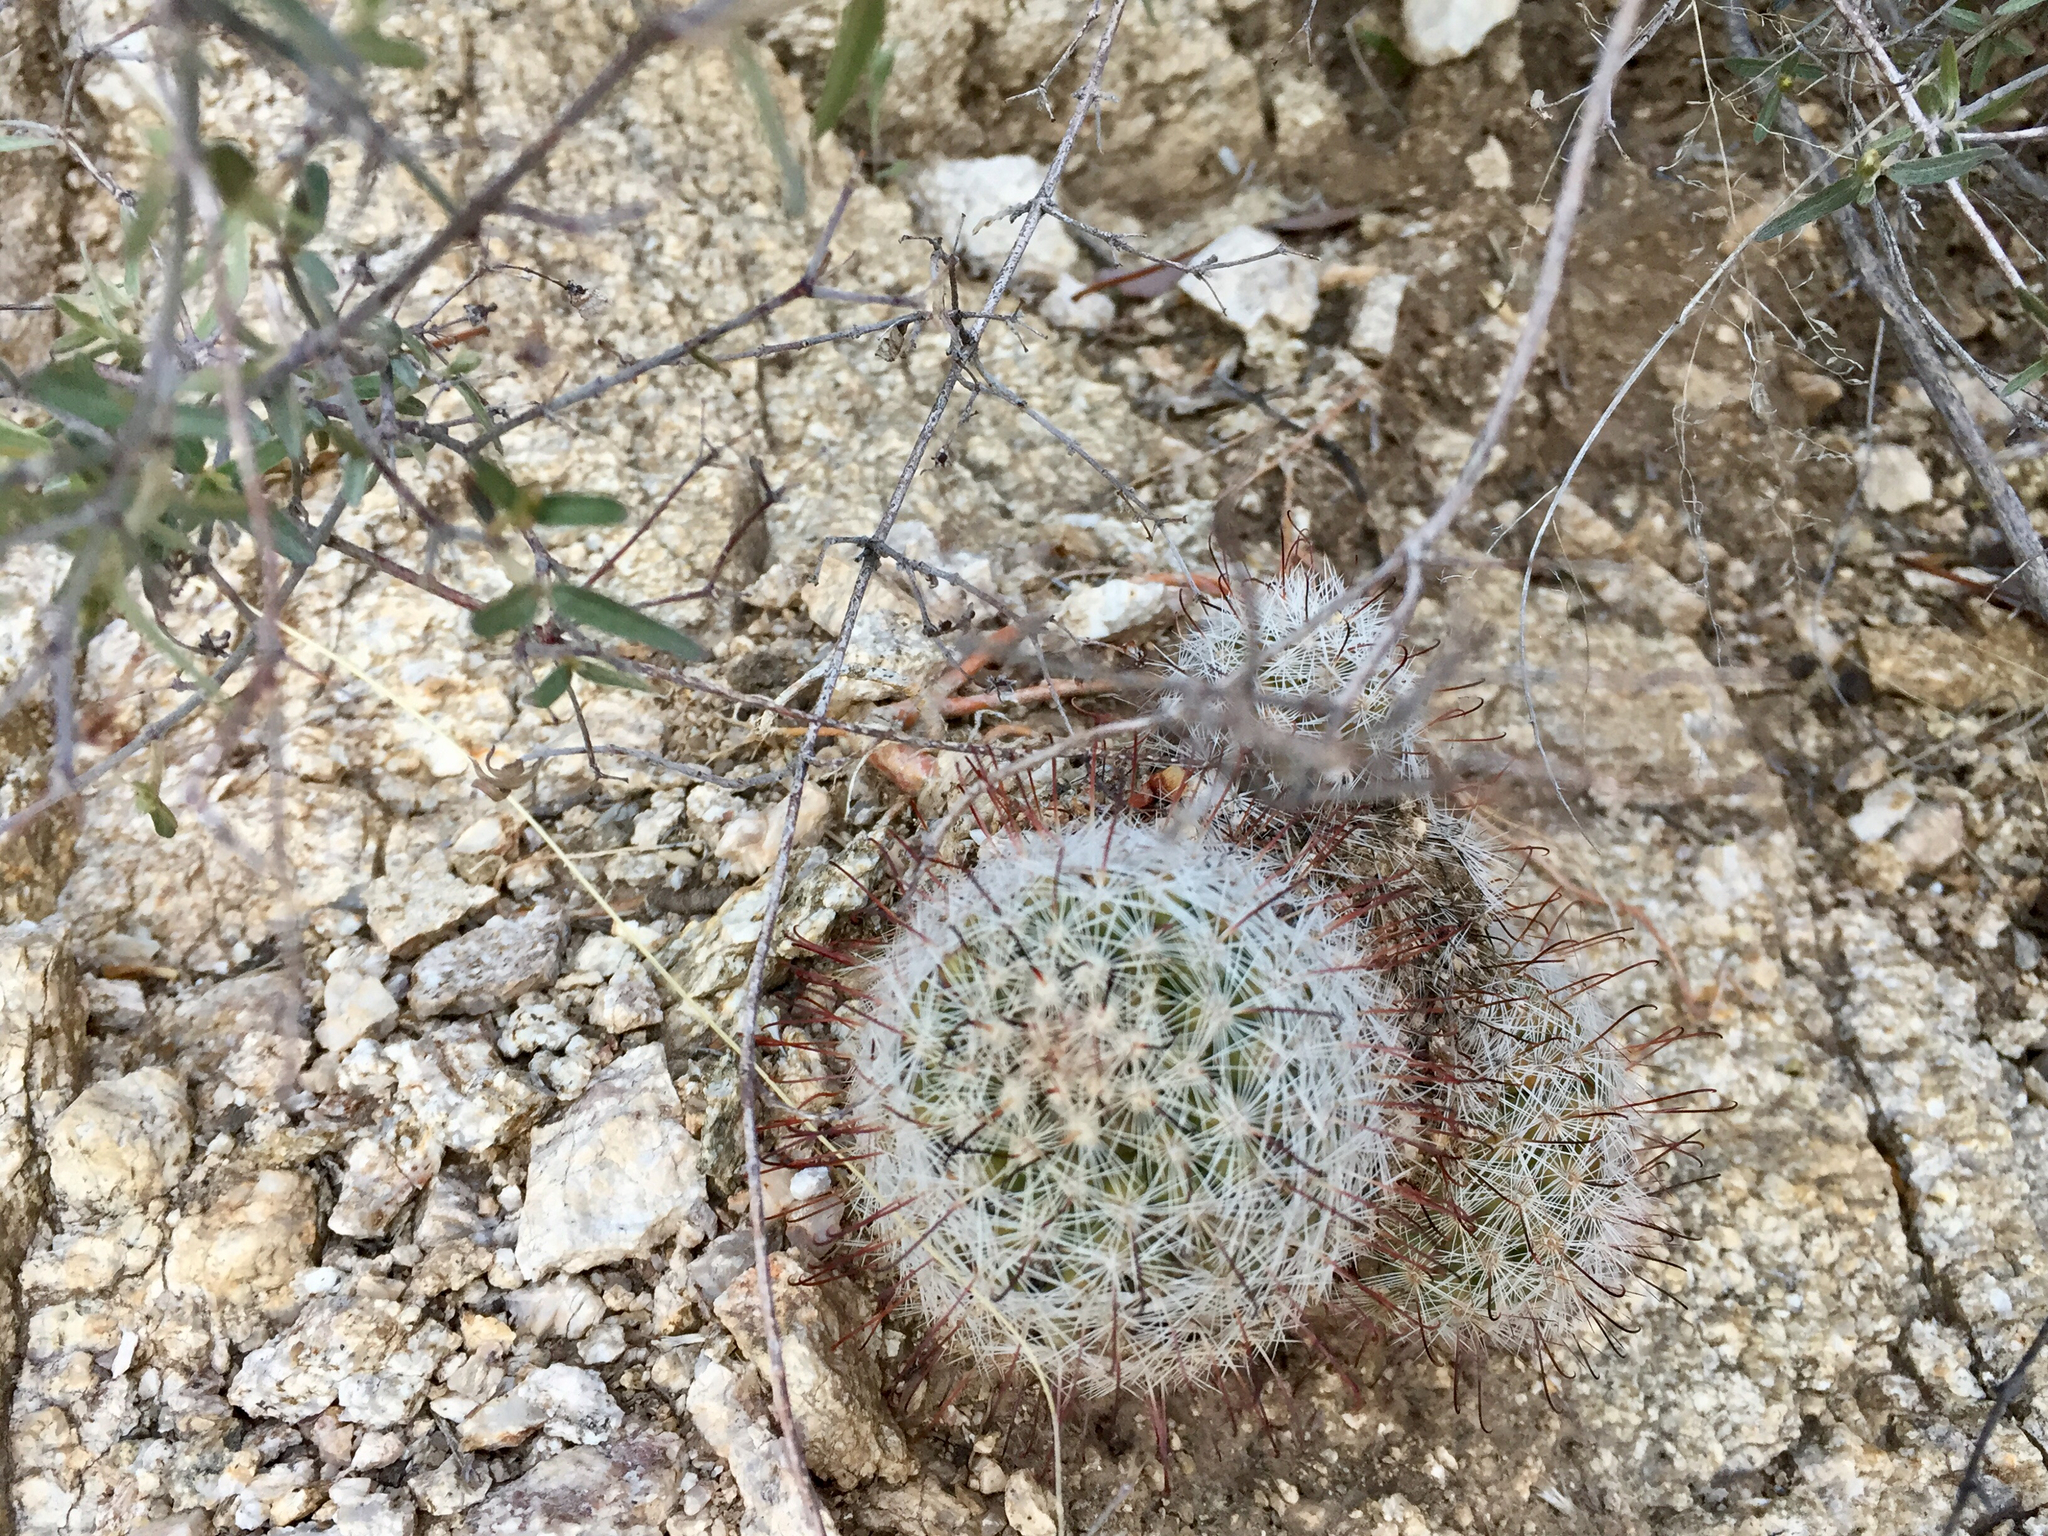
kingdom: Plantae
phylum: Tracheophyta
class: Magnoliopsida
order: Caryophyllales
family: Cactaceae
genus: Cochemiea
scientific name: Cochemiea grahamii
